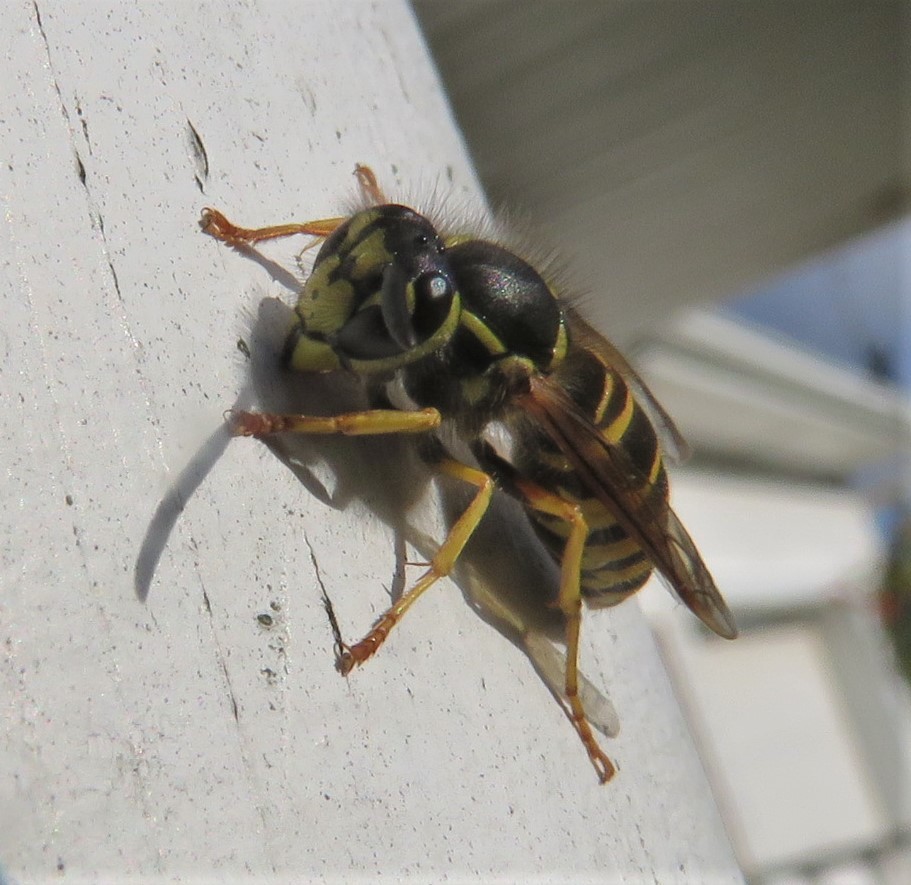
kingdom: Animalia
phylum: Arthropoda
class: Insecta
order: Hymenoptera
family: Vespidae
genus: Vespula
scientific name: Vespula maculifrons
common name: Eastern yellowjacket
